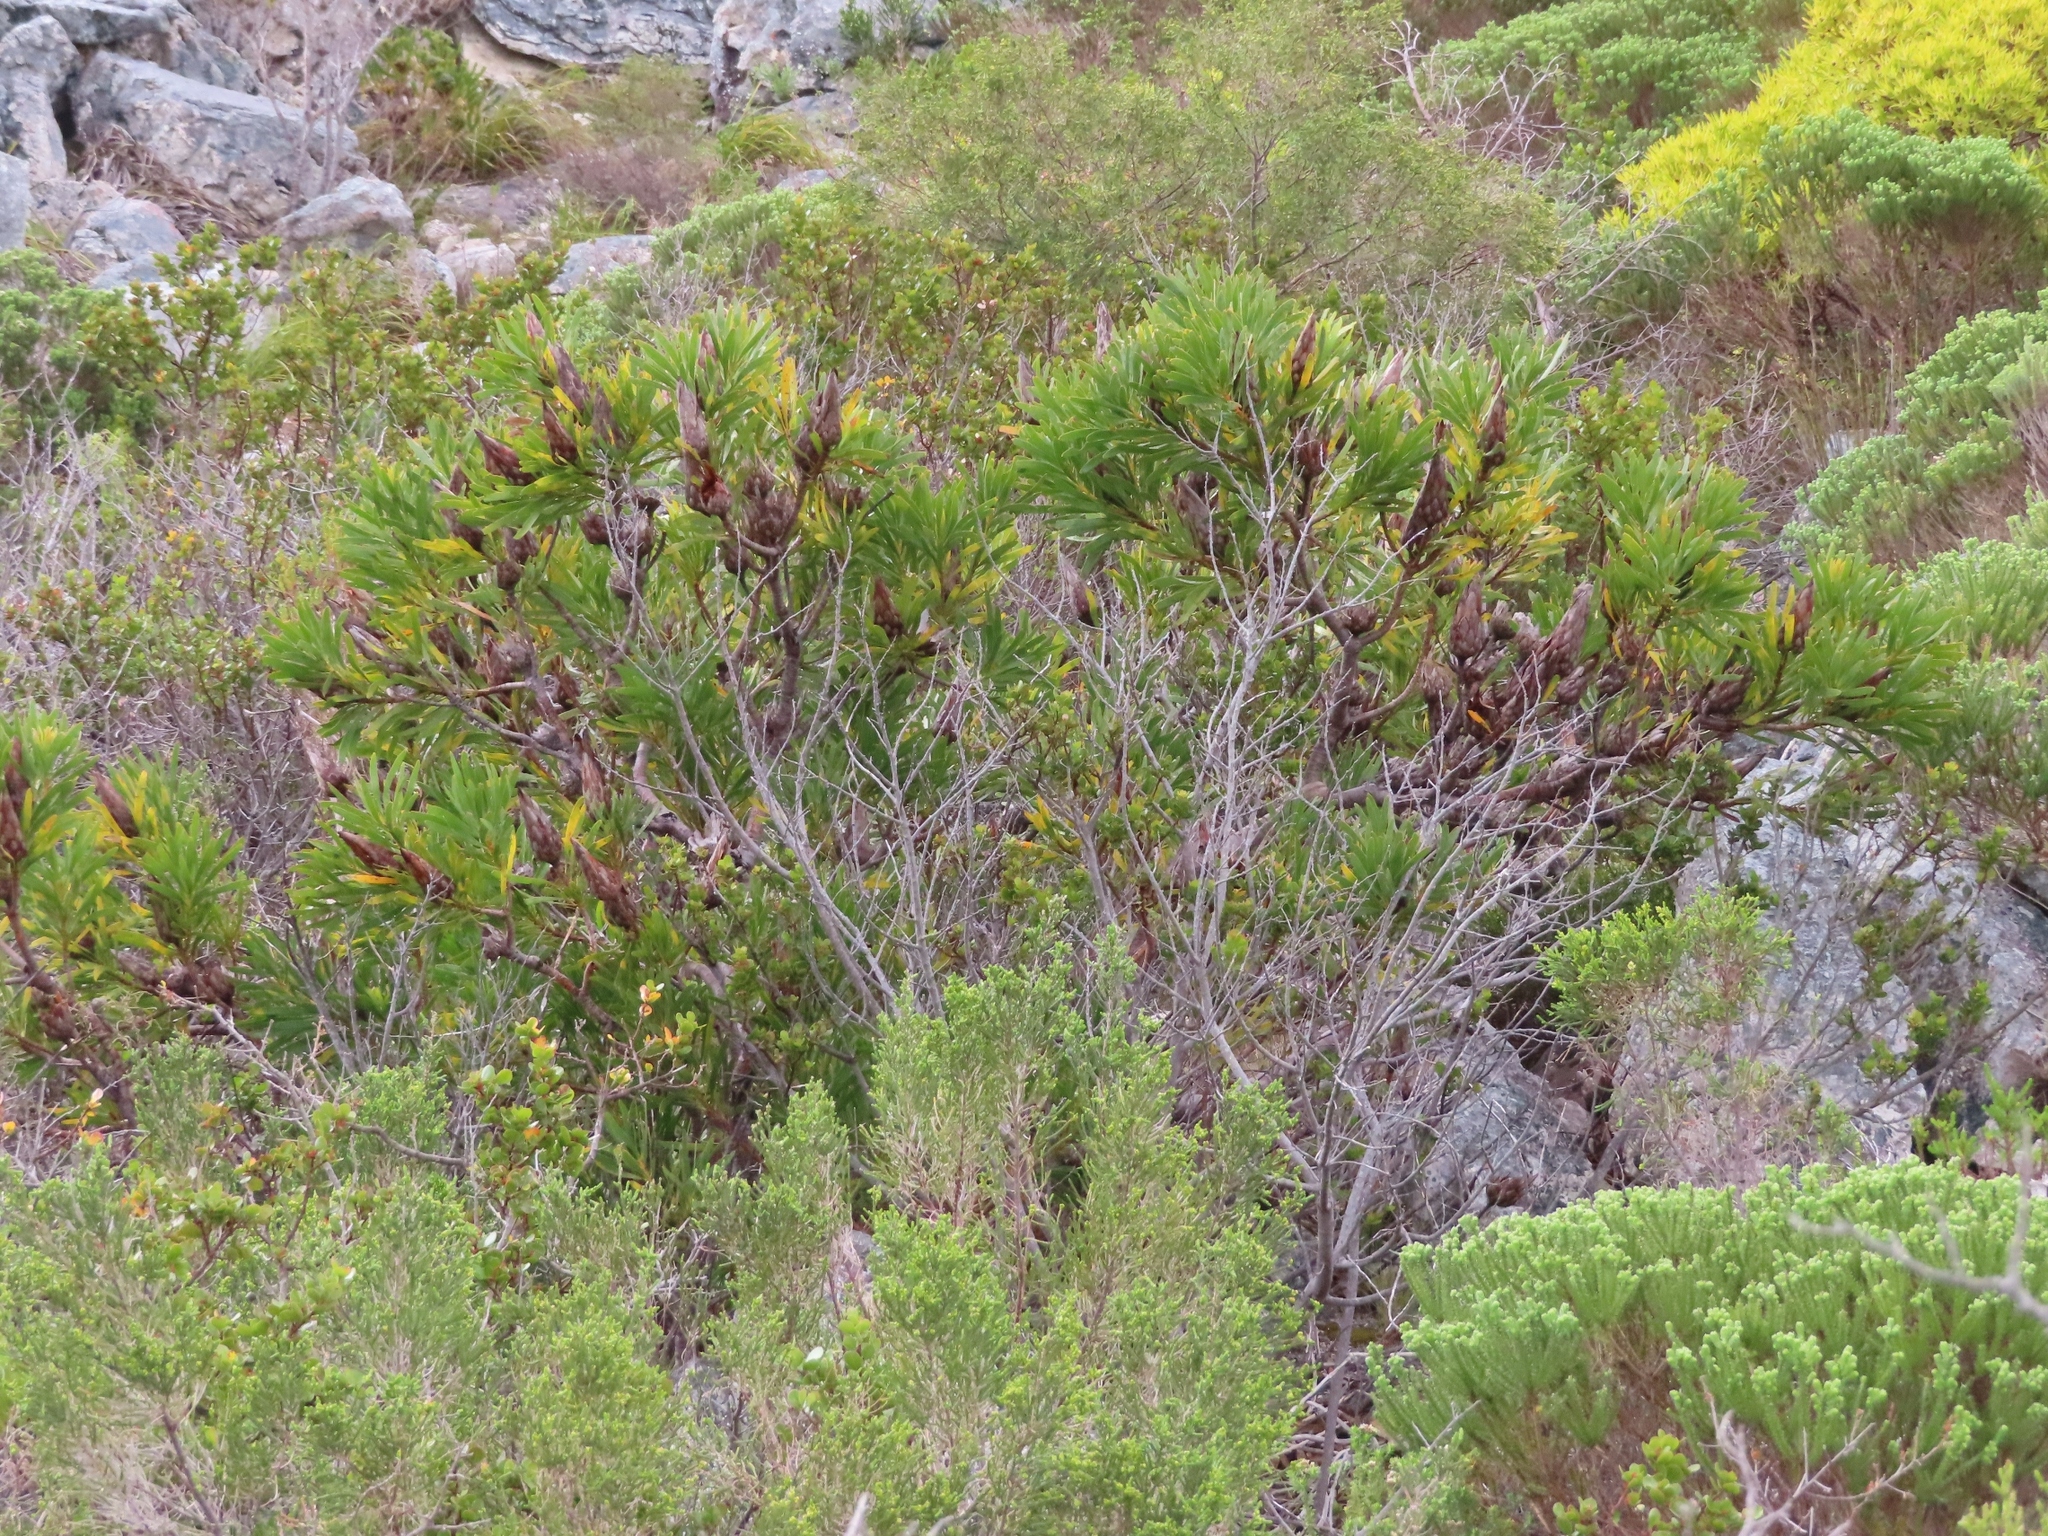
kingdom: Plantae
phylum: Tracheophyta
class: Magnoliopsida
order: Proteales
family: Proteaceae
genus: Protea
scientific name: Protea repens
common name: Sugarbush
